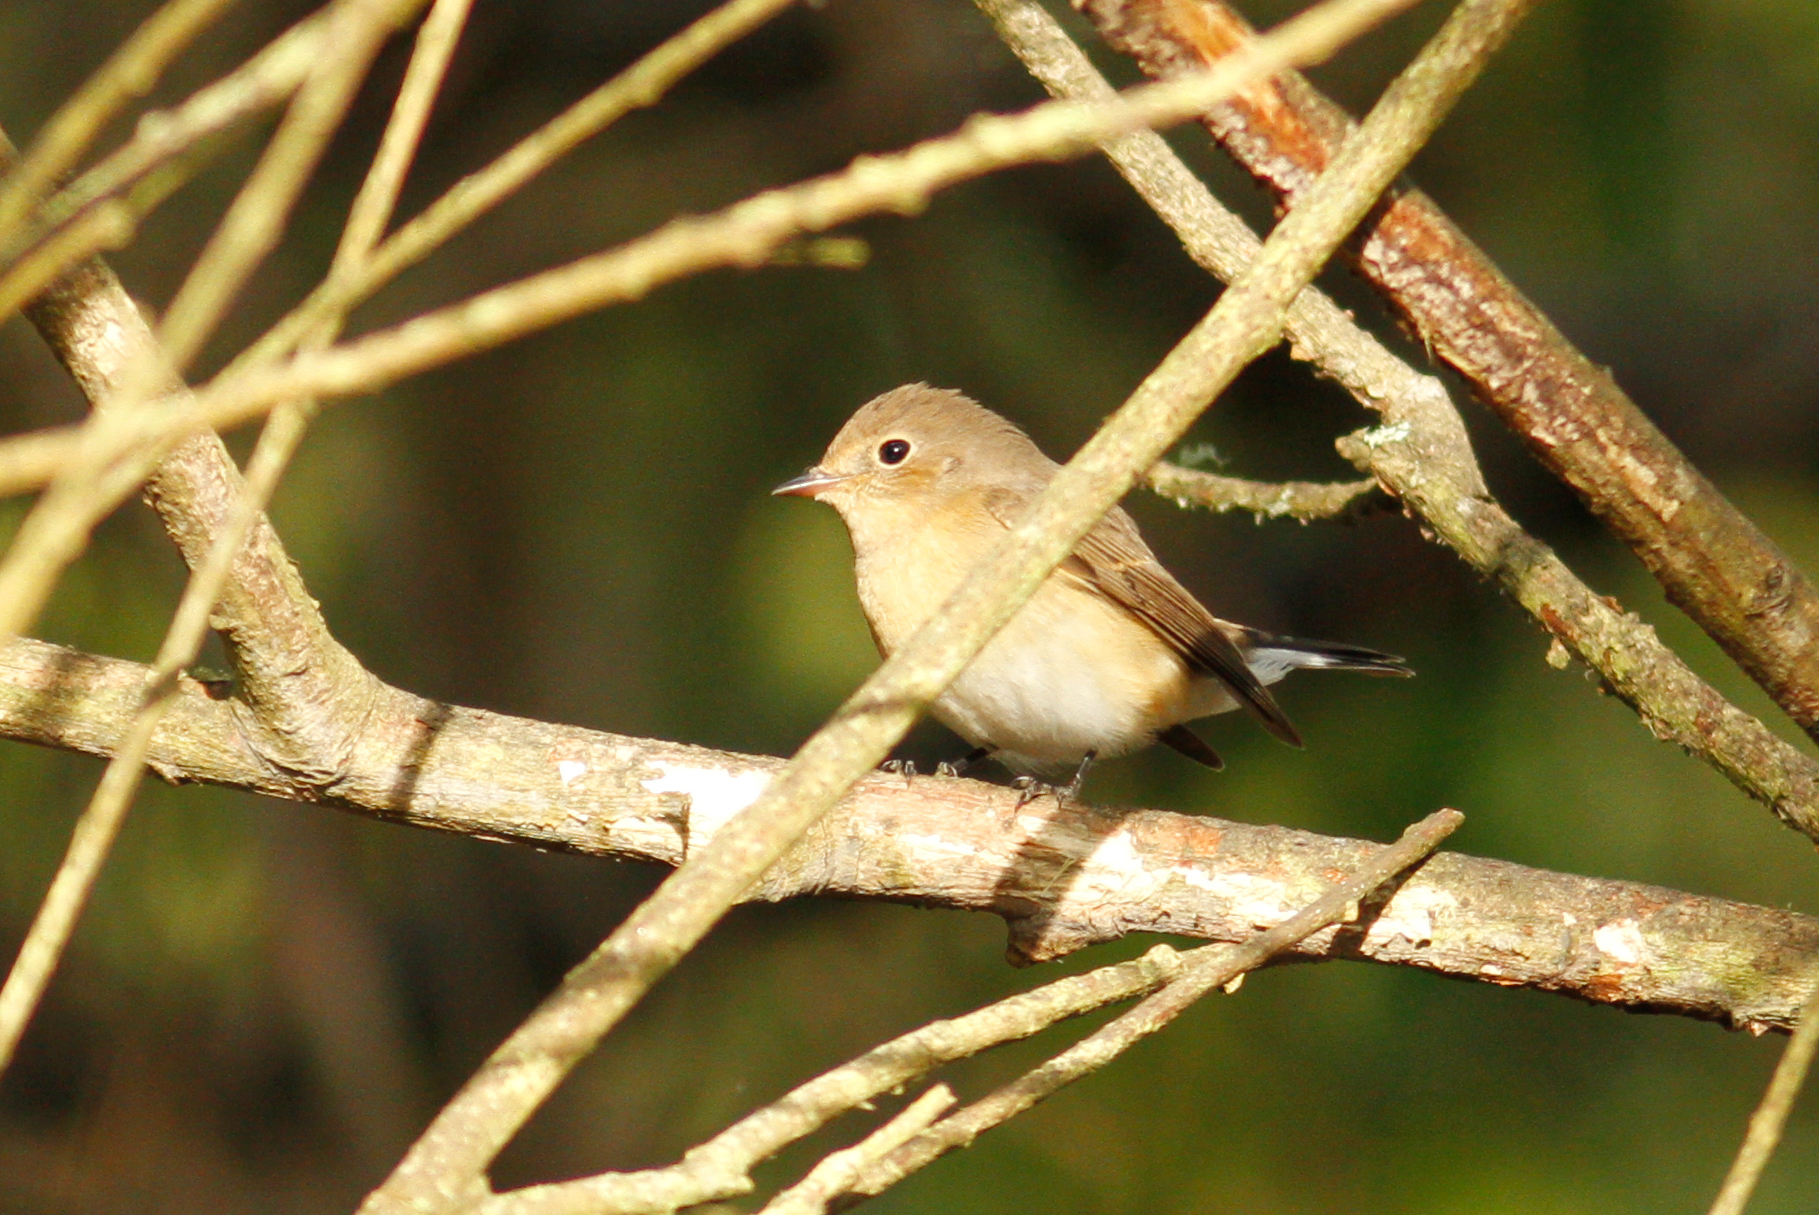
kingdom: Animalia
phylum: Chordata
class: Aves
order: Passeriformes
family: Muscicapidae
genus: Ficedula
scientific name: Ficedula parva
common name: Red-breasted flycatcher
